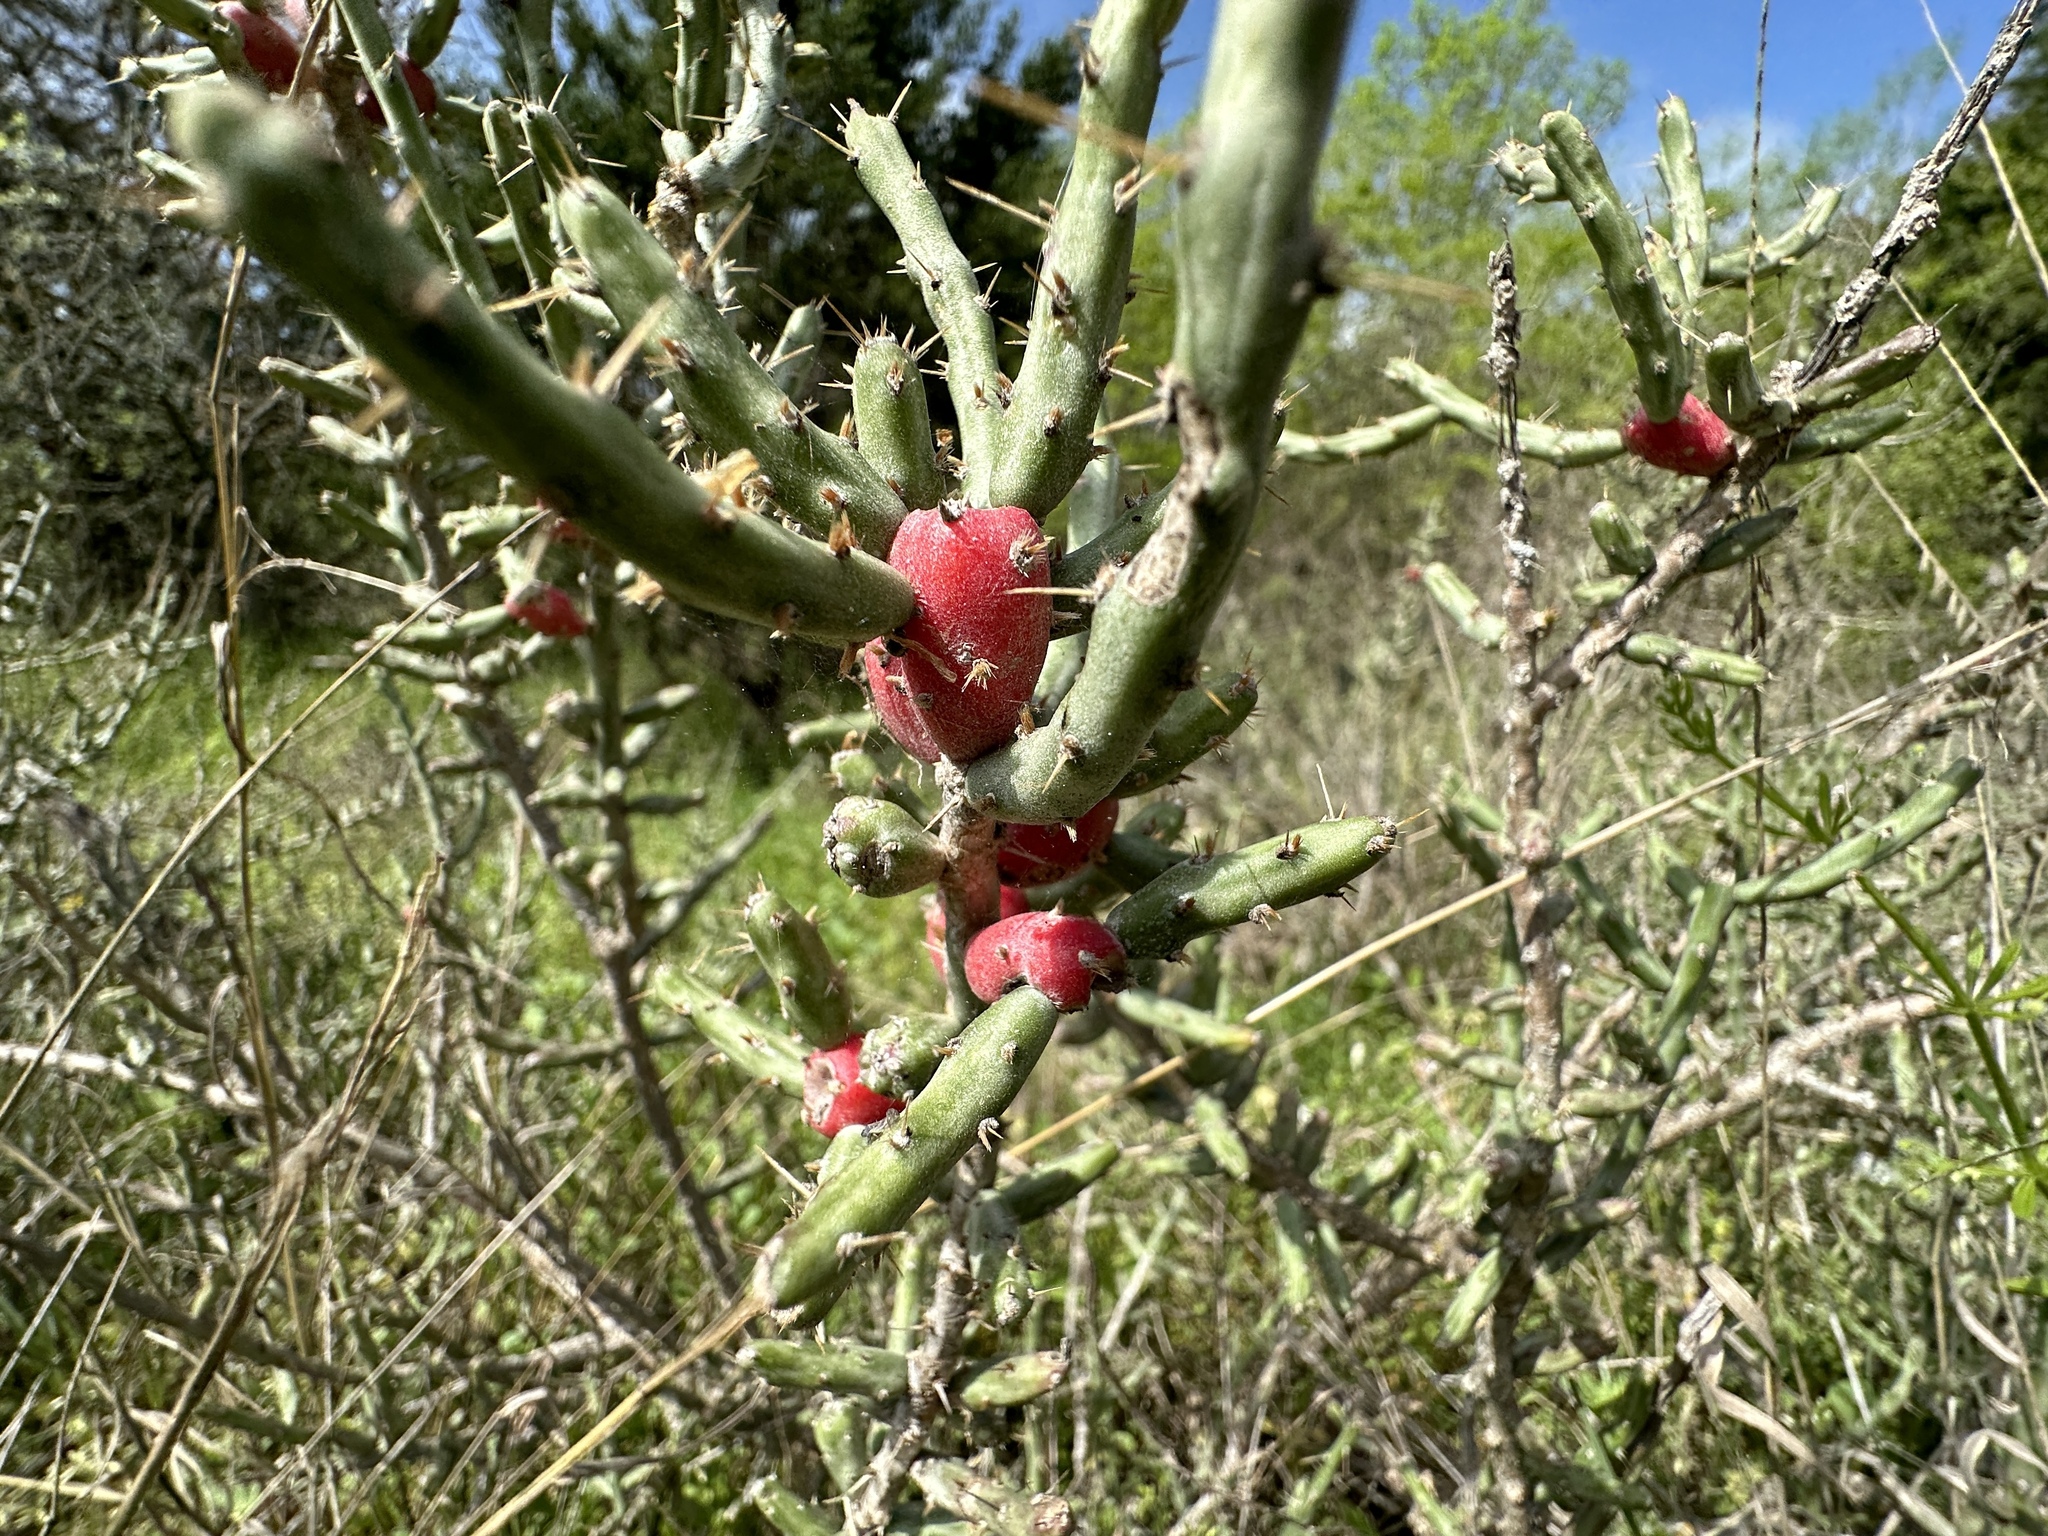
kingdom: Plantae
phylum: Tracheophyta
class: Magnoliopsida
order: Caryophyllales
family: Cactaceae
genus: Cylindropuntia
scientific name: Cylindropuntia leptocaulis
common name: Christmas cactus
